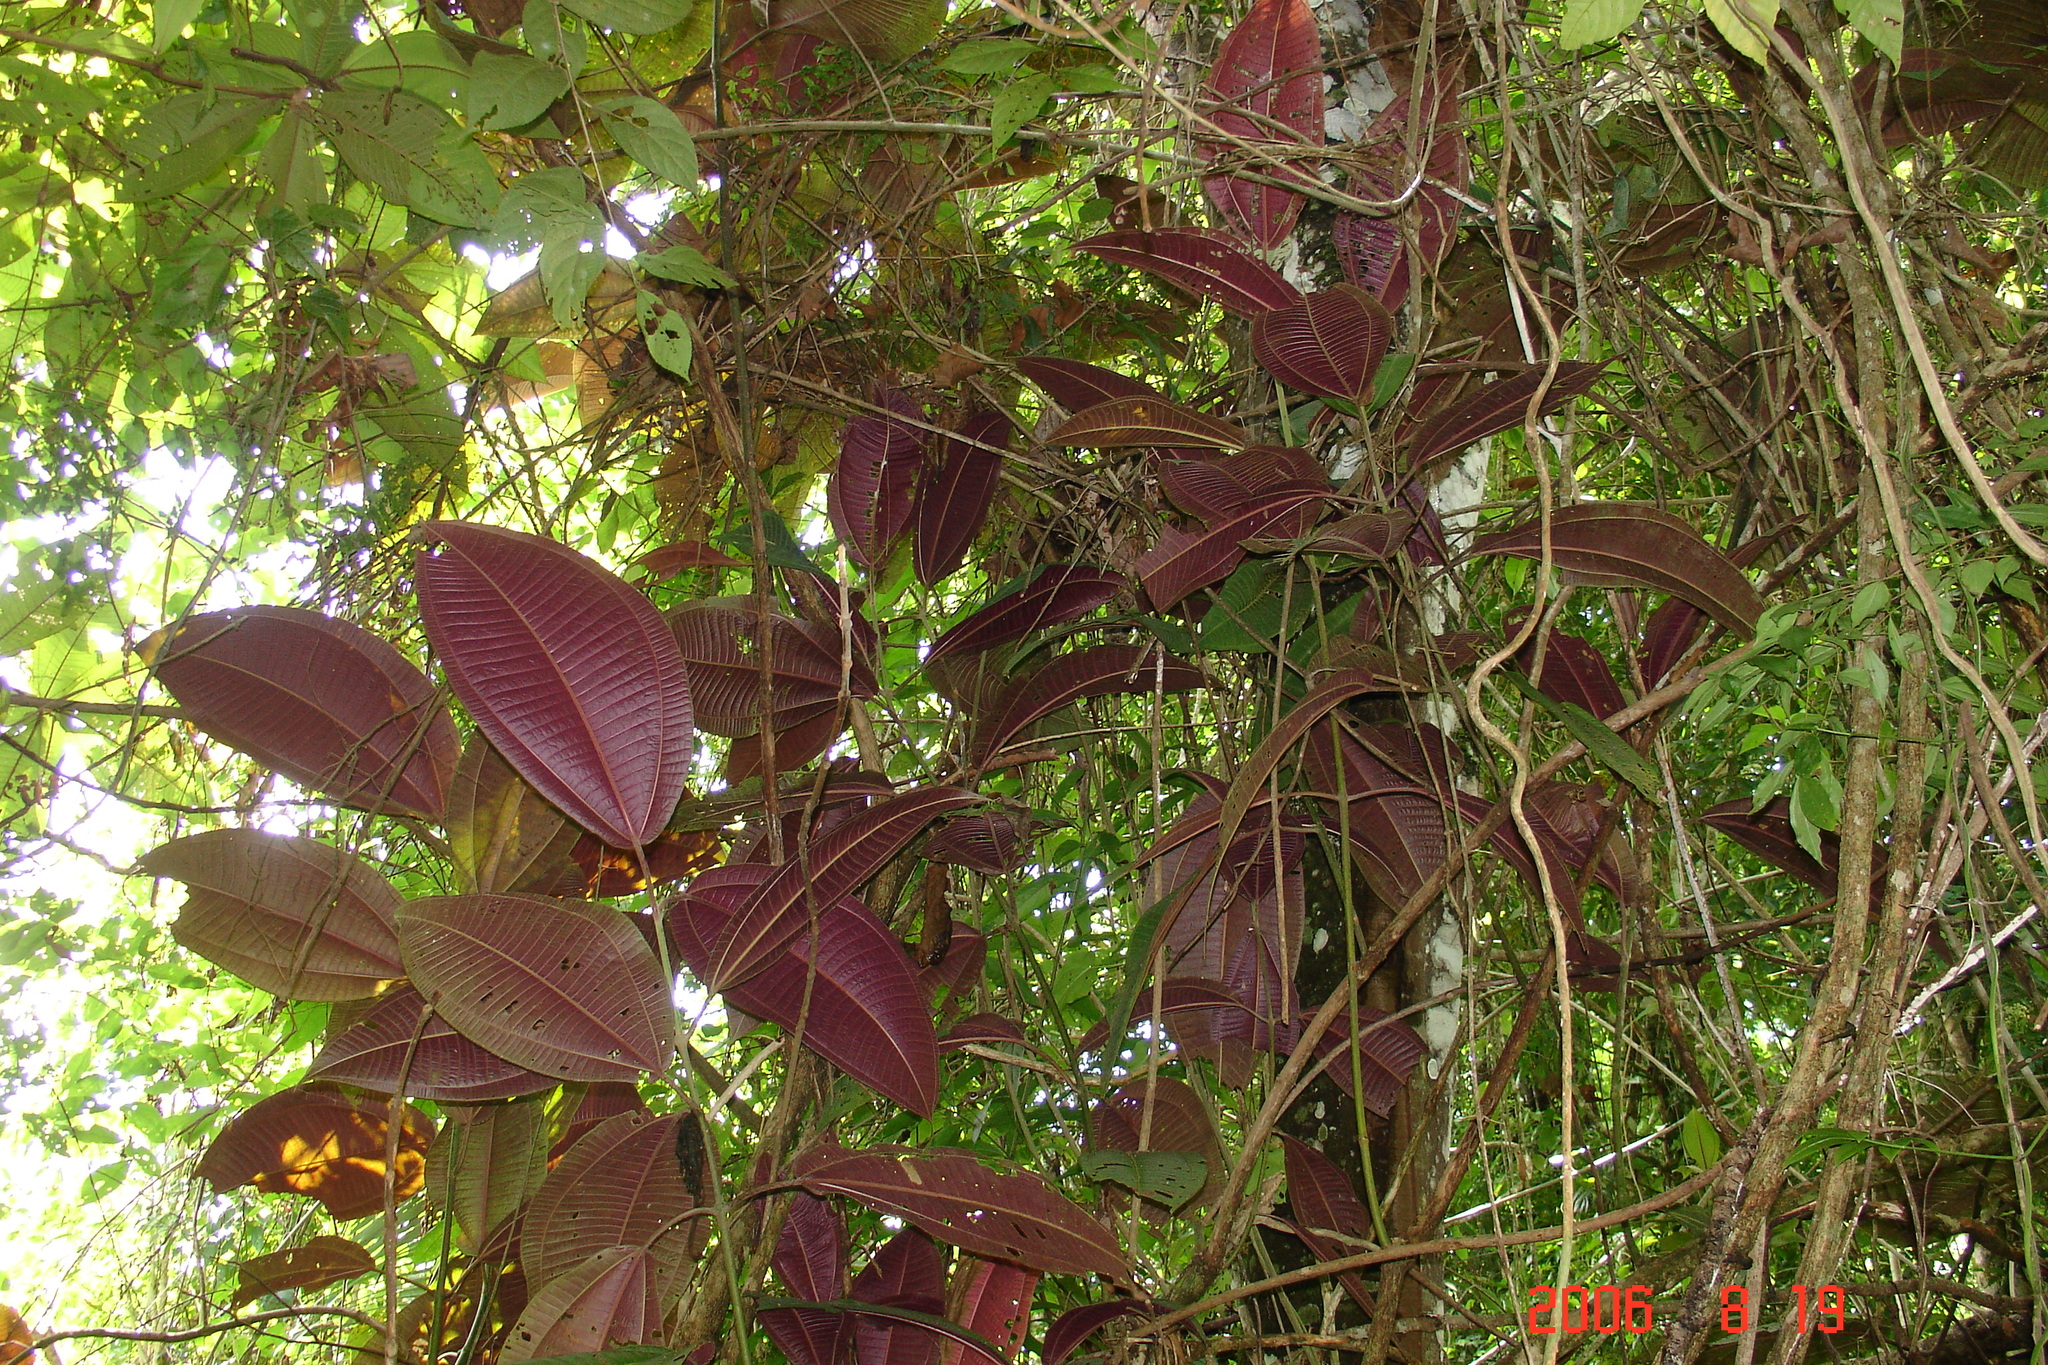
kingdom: Plantae
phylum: Tracheophyta
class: Magnoliopsida
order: Myrtales
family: Melastomataceae
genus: Miconia
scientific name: Miconia calvescens
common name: Purple plague
